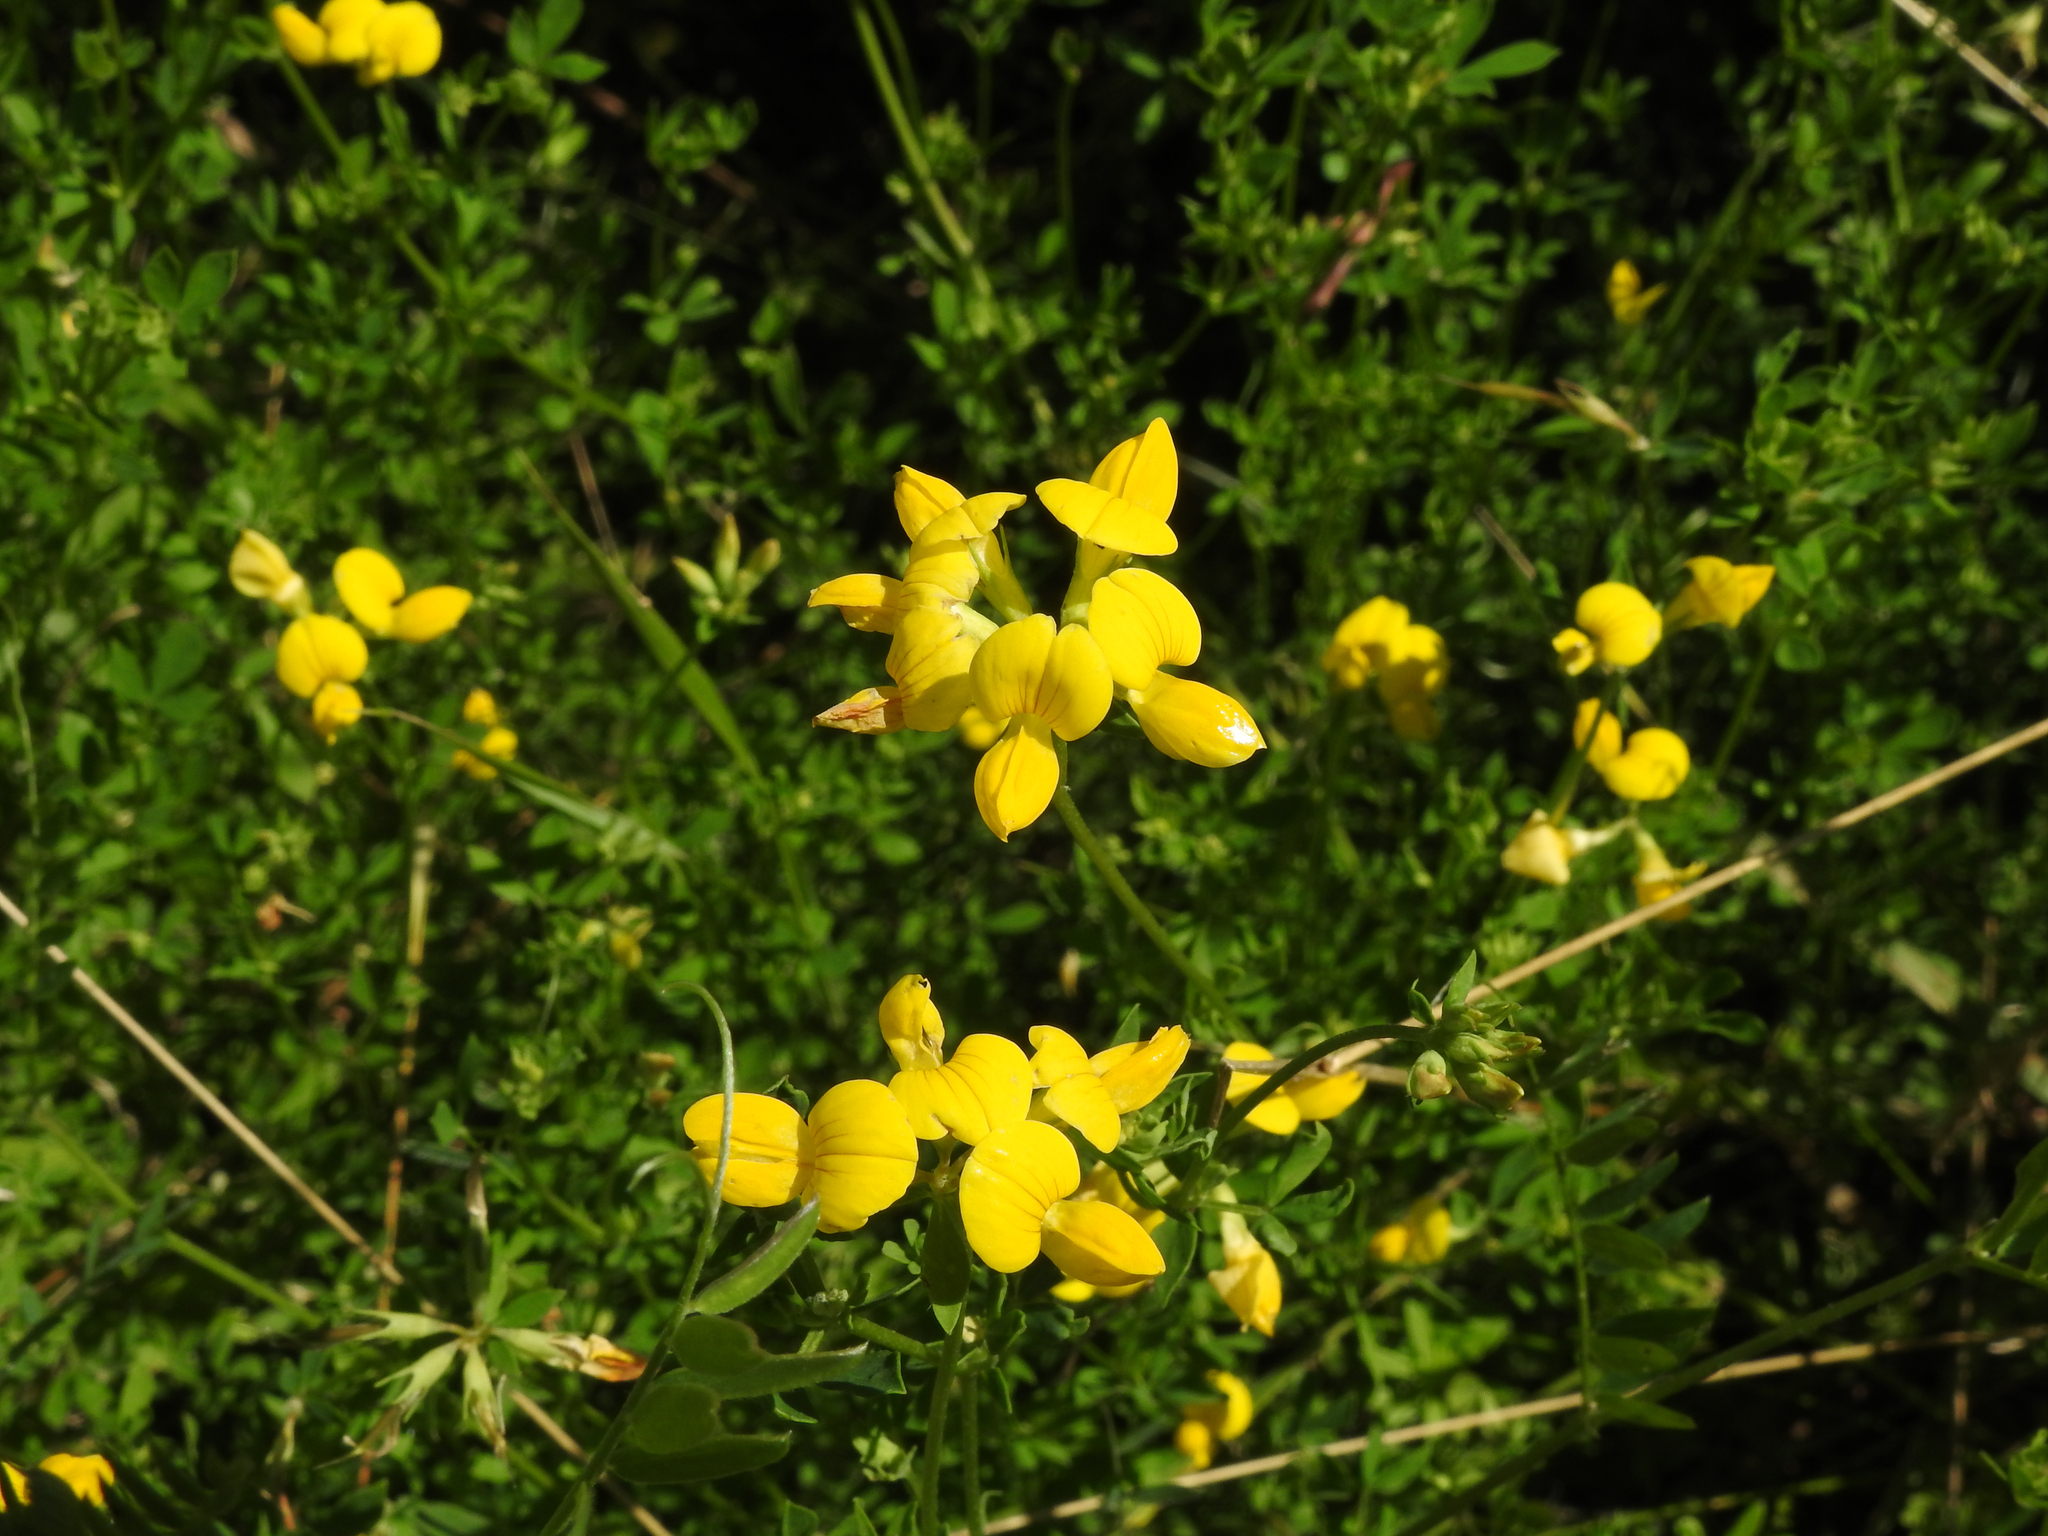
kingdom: Plantae
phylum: Tracheophyta
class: Magnoliopsida
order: Fabales
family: Fabaceae
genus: Lotus
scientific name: Lotus corniculatus
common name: Common bird's-foot-trefoil
